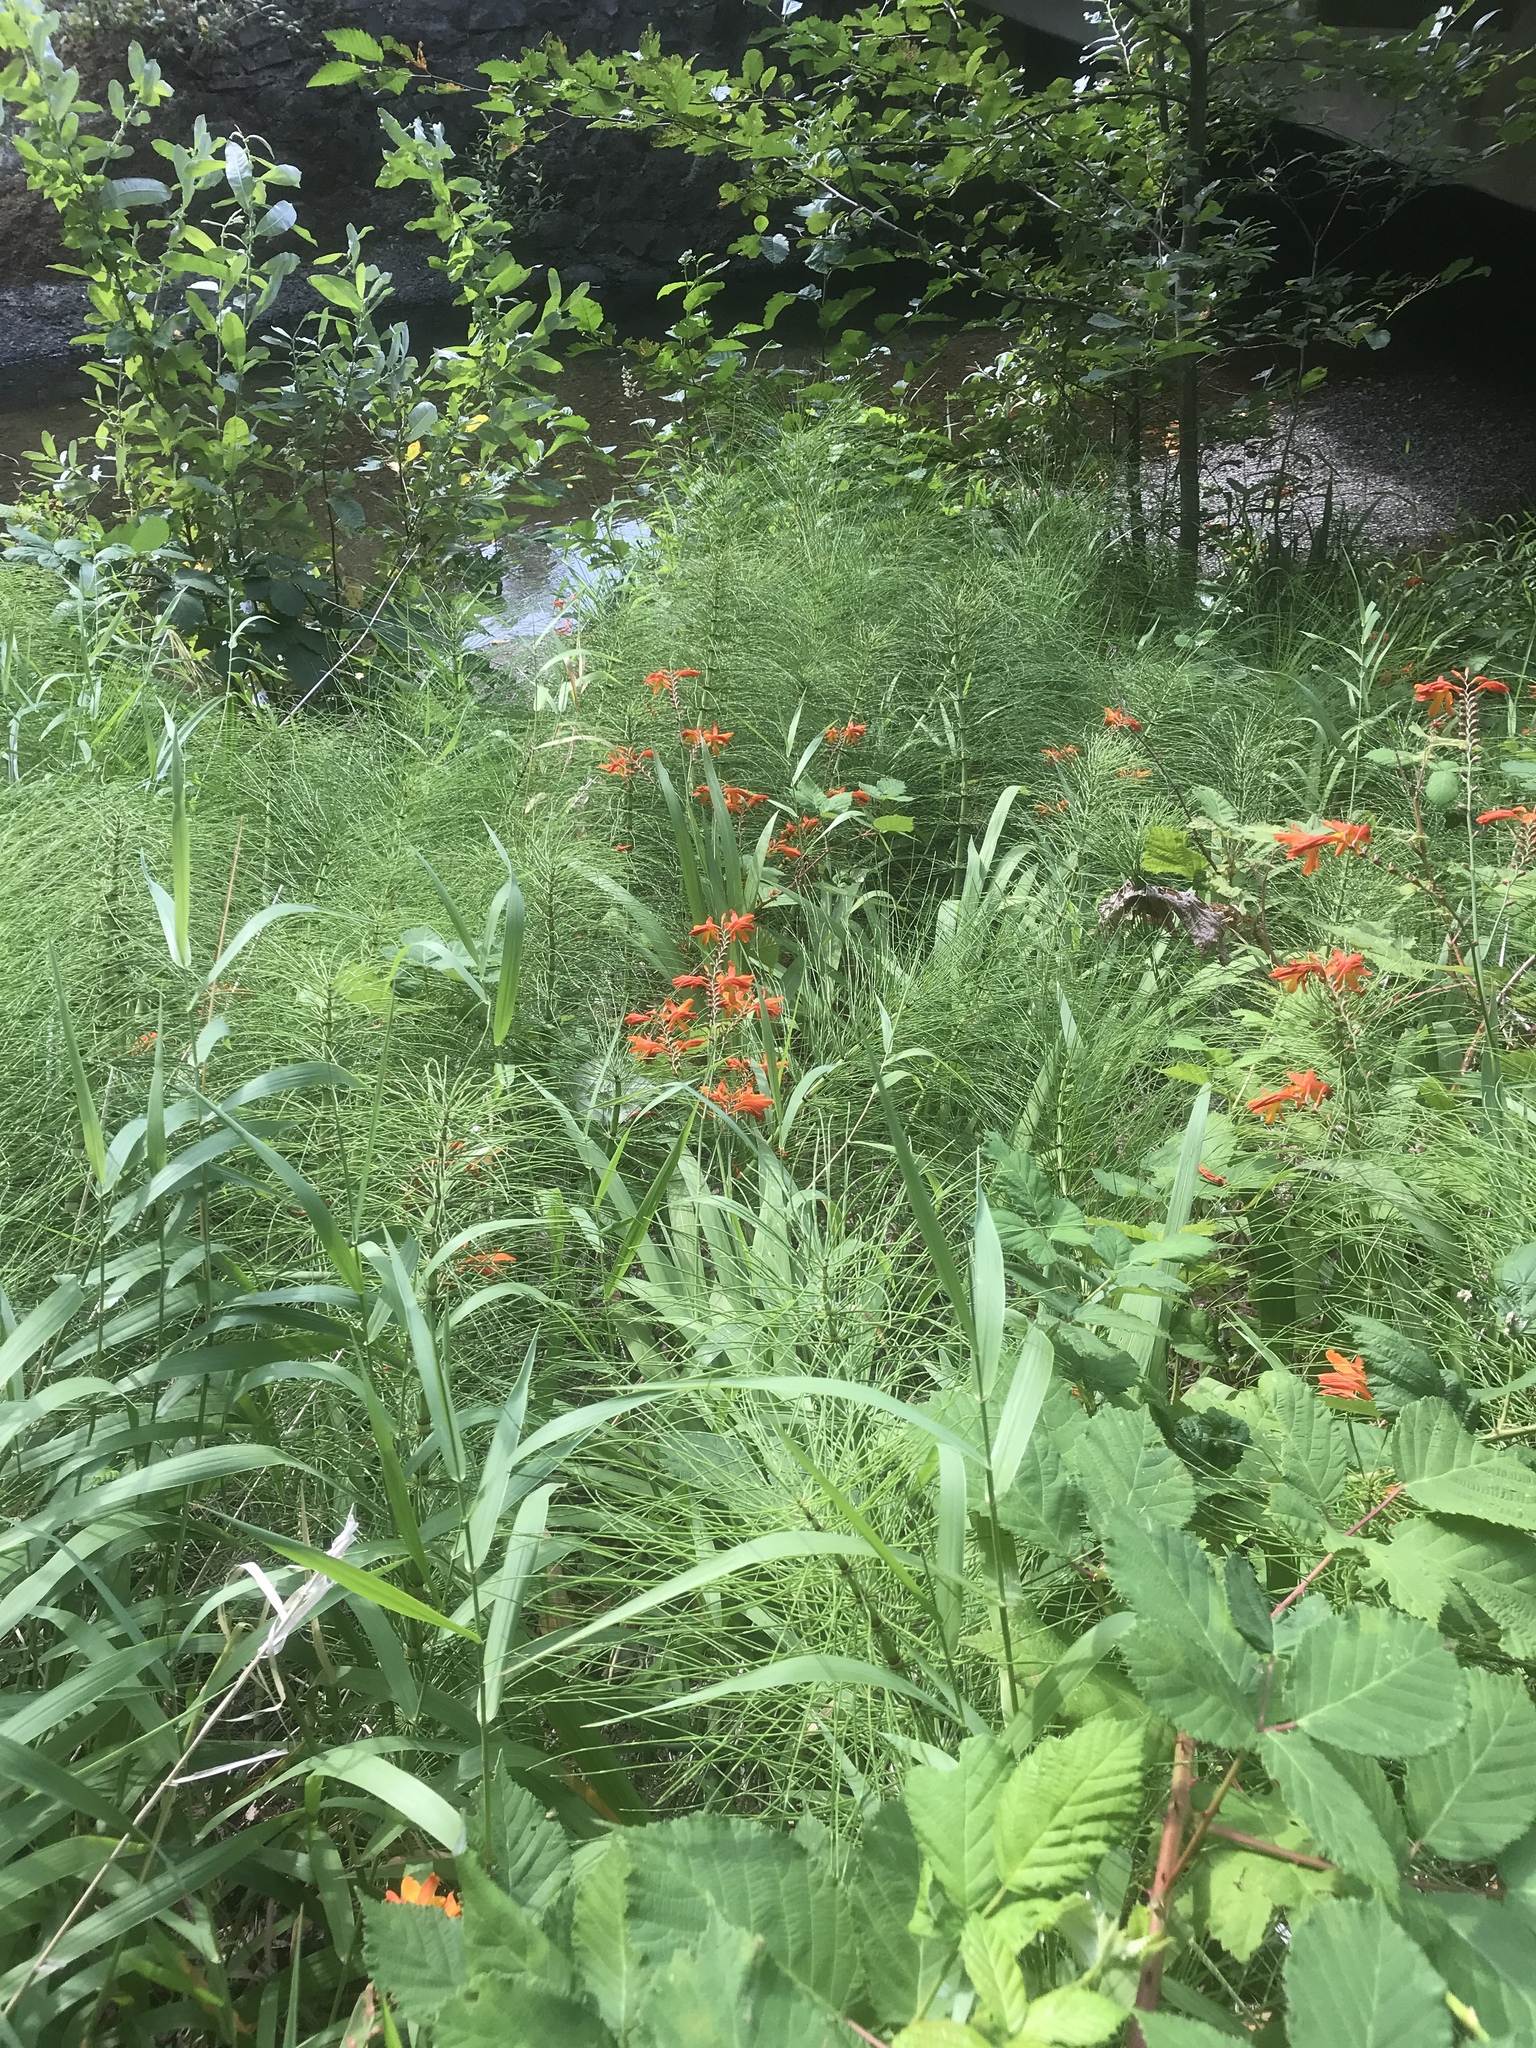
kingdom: Plantae
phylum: Tracheophyta
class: Liliopsida
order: Asparagales
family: Iridaceae
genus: Crocosmia
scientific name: Crocosmia crocosmiiflora
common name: Montbretia
